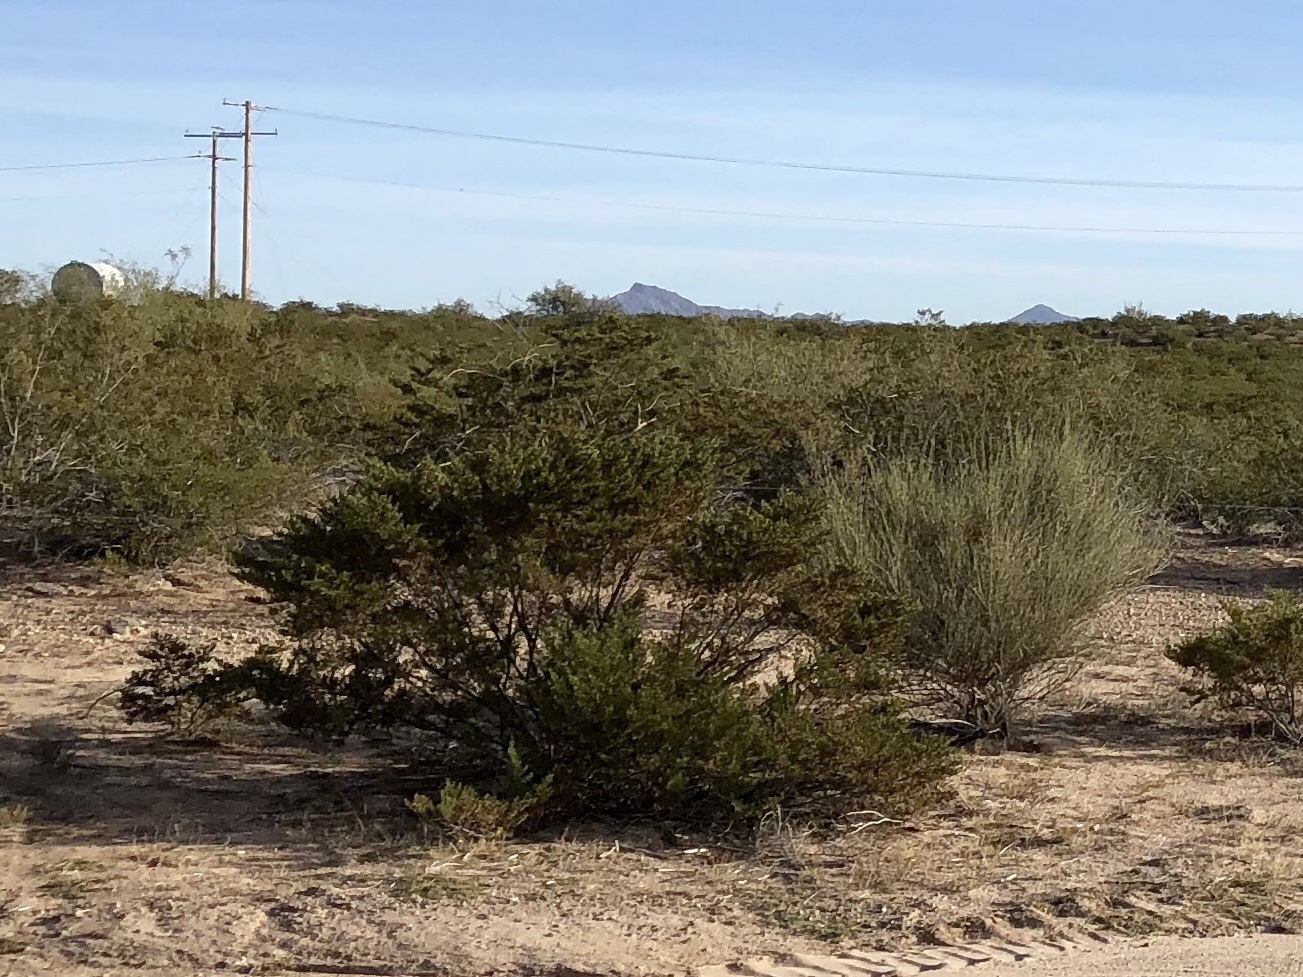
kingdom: Plantae
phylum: Tracheophyta
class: Magnoliopsida
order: Zygophyllales
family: Zygophyllaceae
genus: Larrea
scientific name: Larrea tridentata
